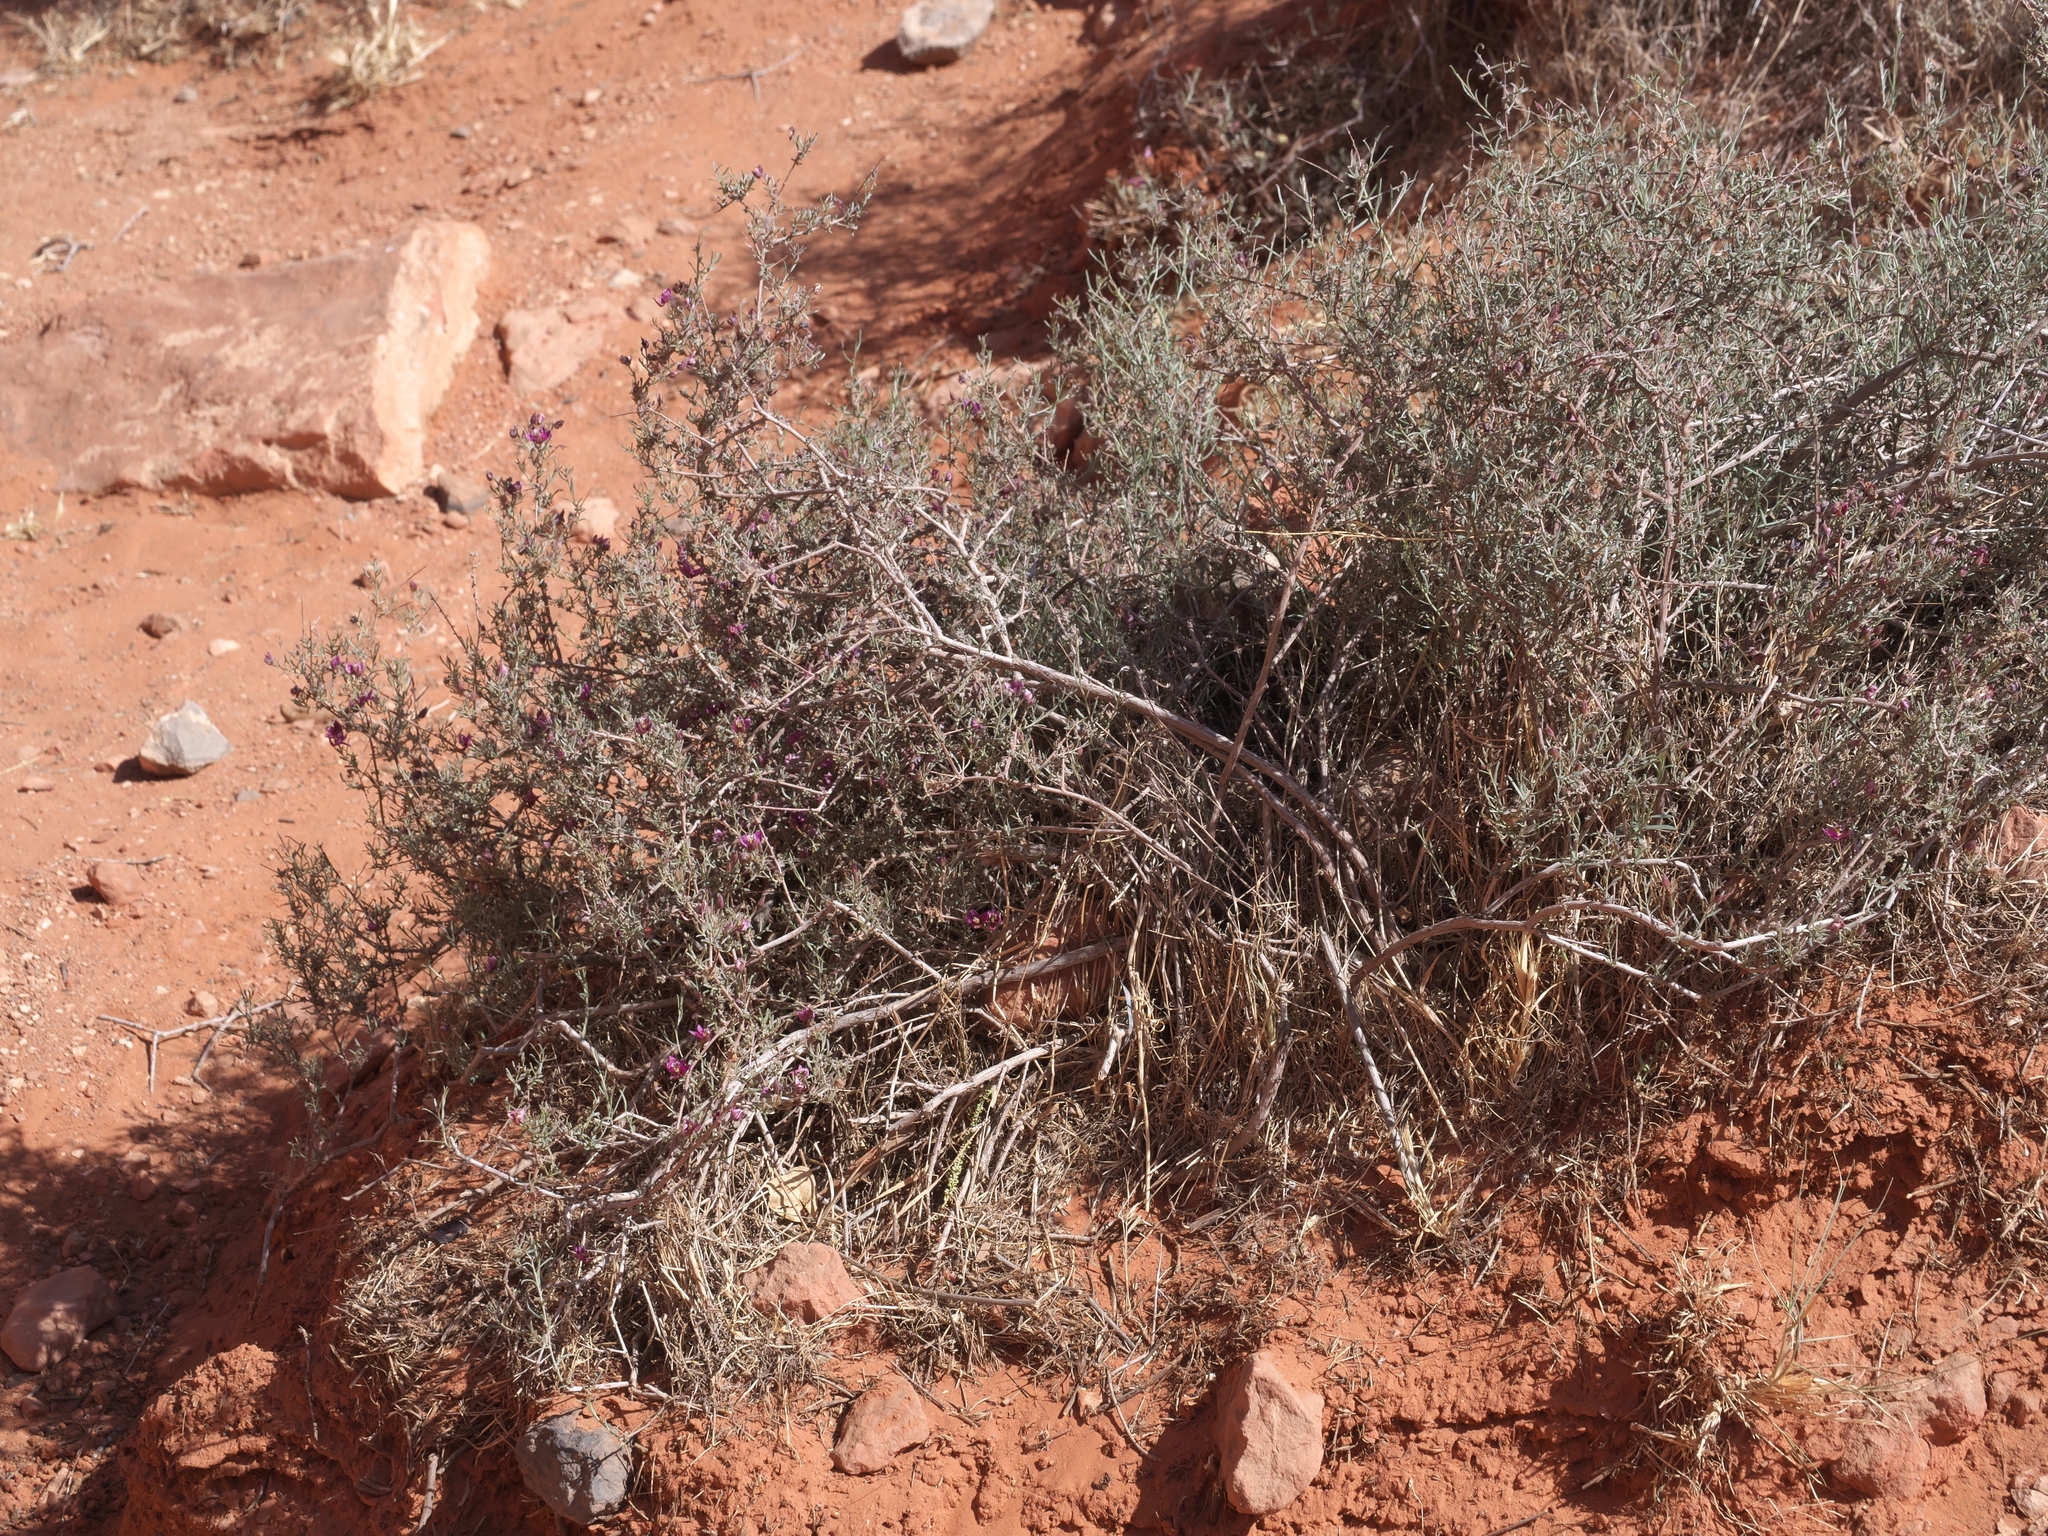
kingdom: Plantae
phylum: Tracheophyta
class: Magnoliopsida
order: Zygophyllales
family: Krameriaceae
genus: Krameria
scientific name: Krameria erecta
